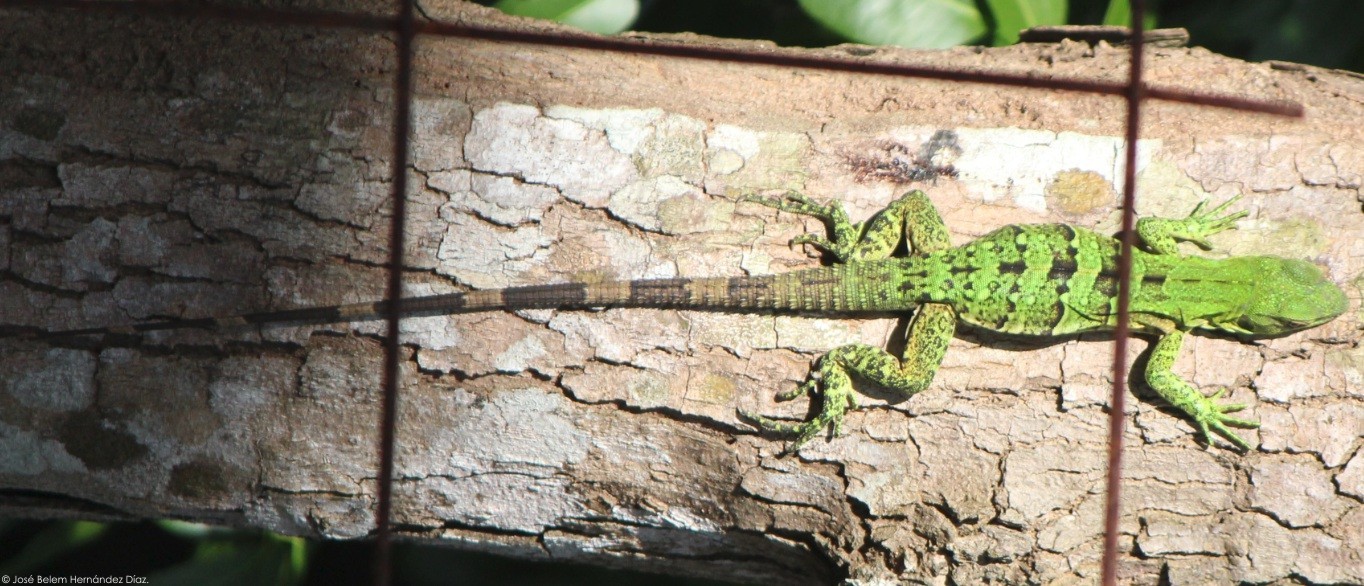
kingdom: Animalia
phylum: Chordata
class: Squamata
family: Iguanidae
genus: Ctenosaura
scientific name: Ctenosaura similis
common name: Black spiny-tailed iguana
